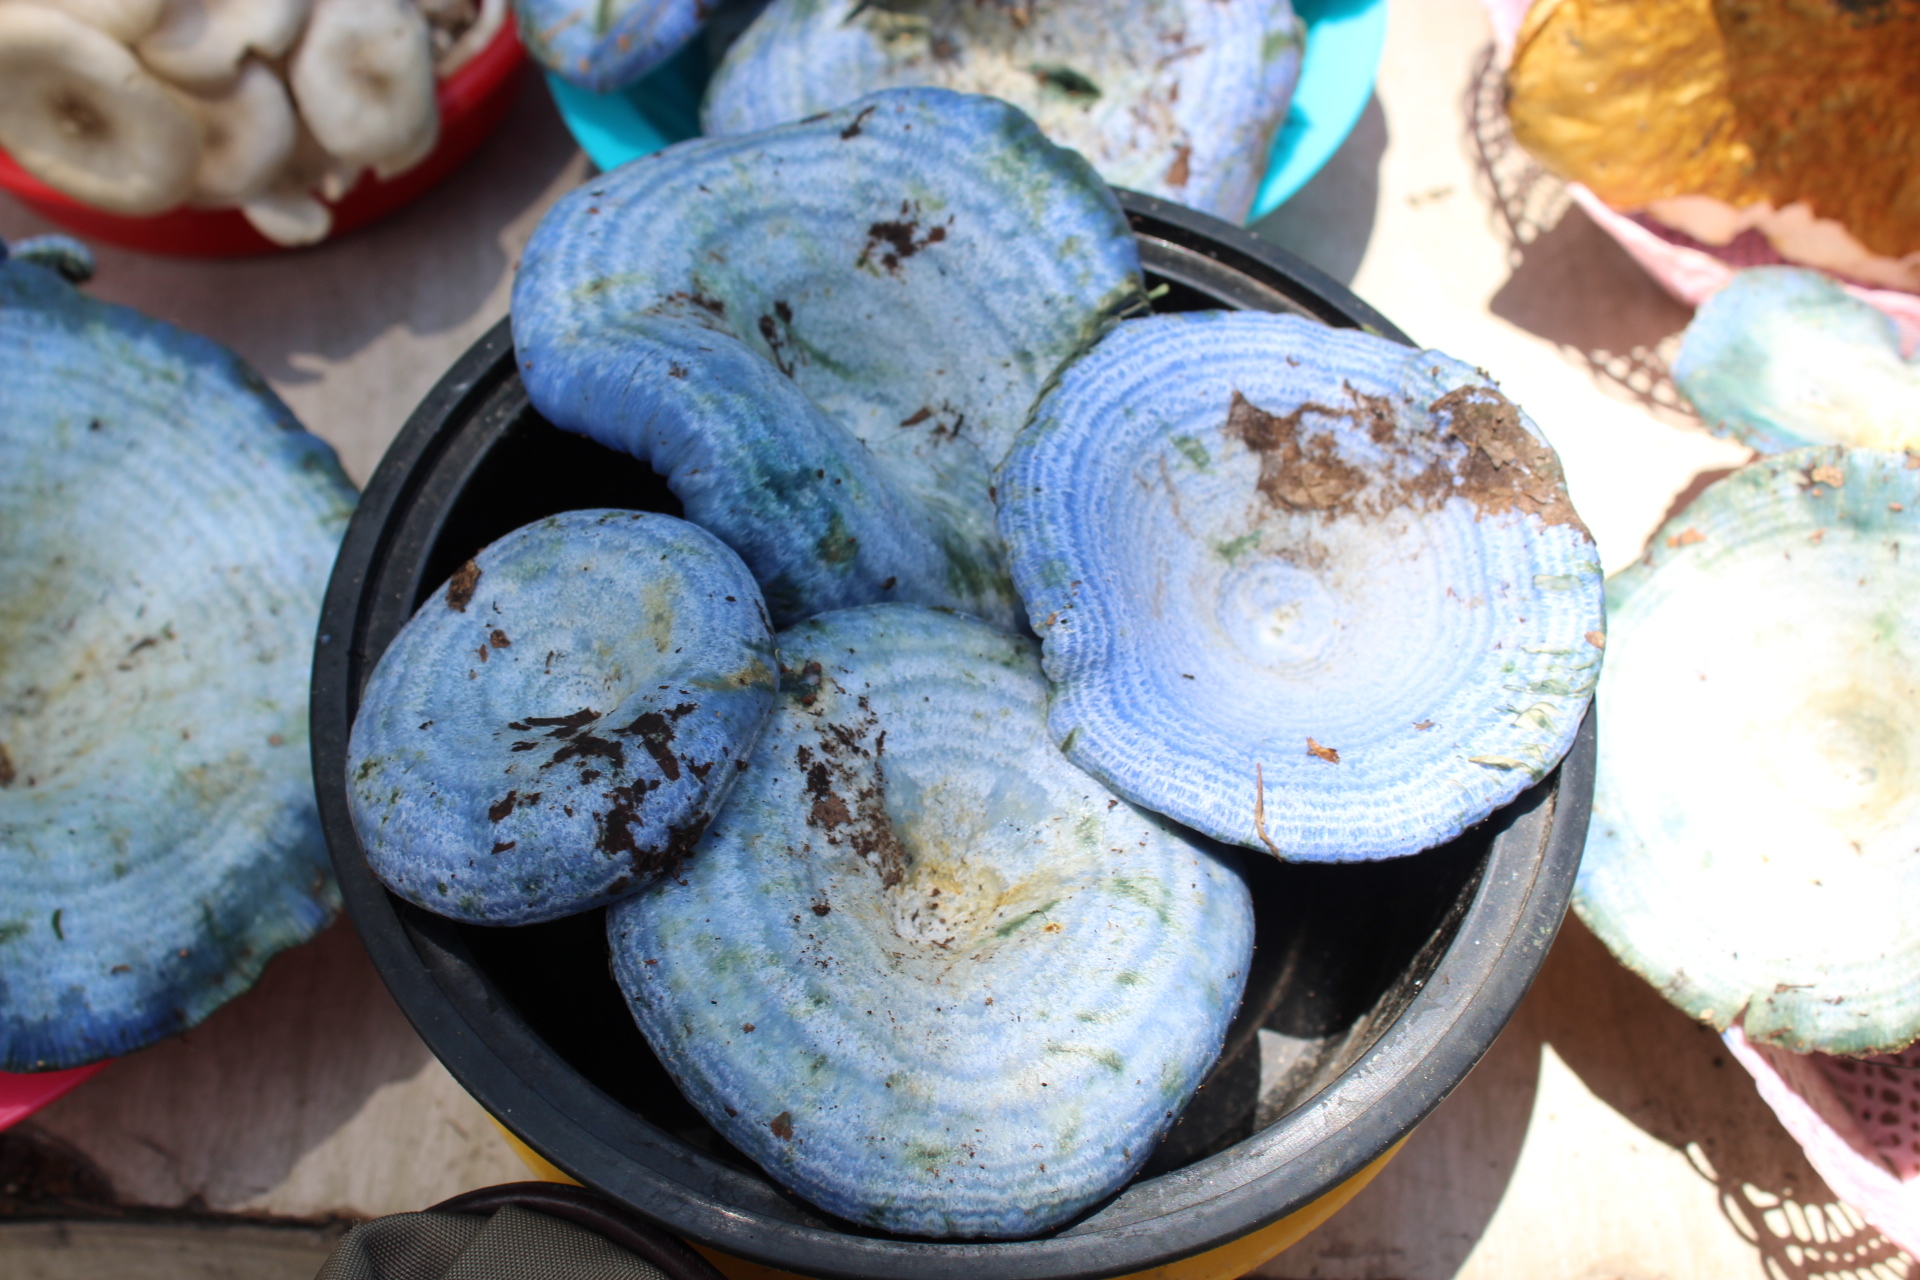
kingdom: Fungi
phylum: Basidiomycota
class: Agaricomycetes
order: Russulales
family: Russulaceae
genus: Lactarius
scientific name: Lactarius indigo
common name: Indigo milk cap
